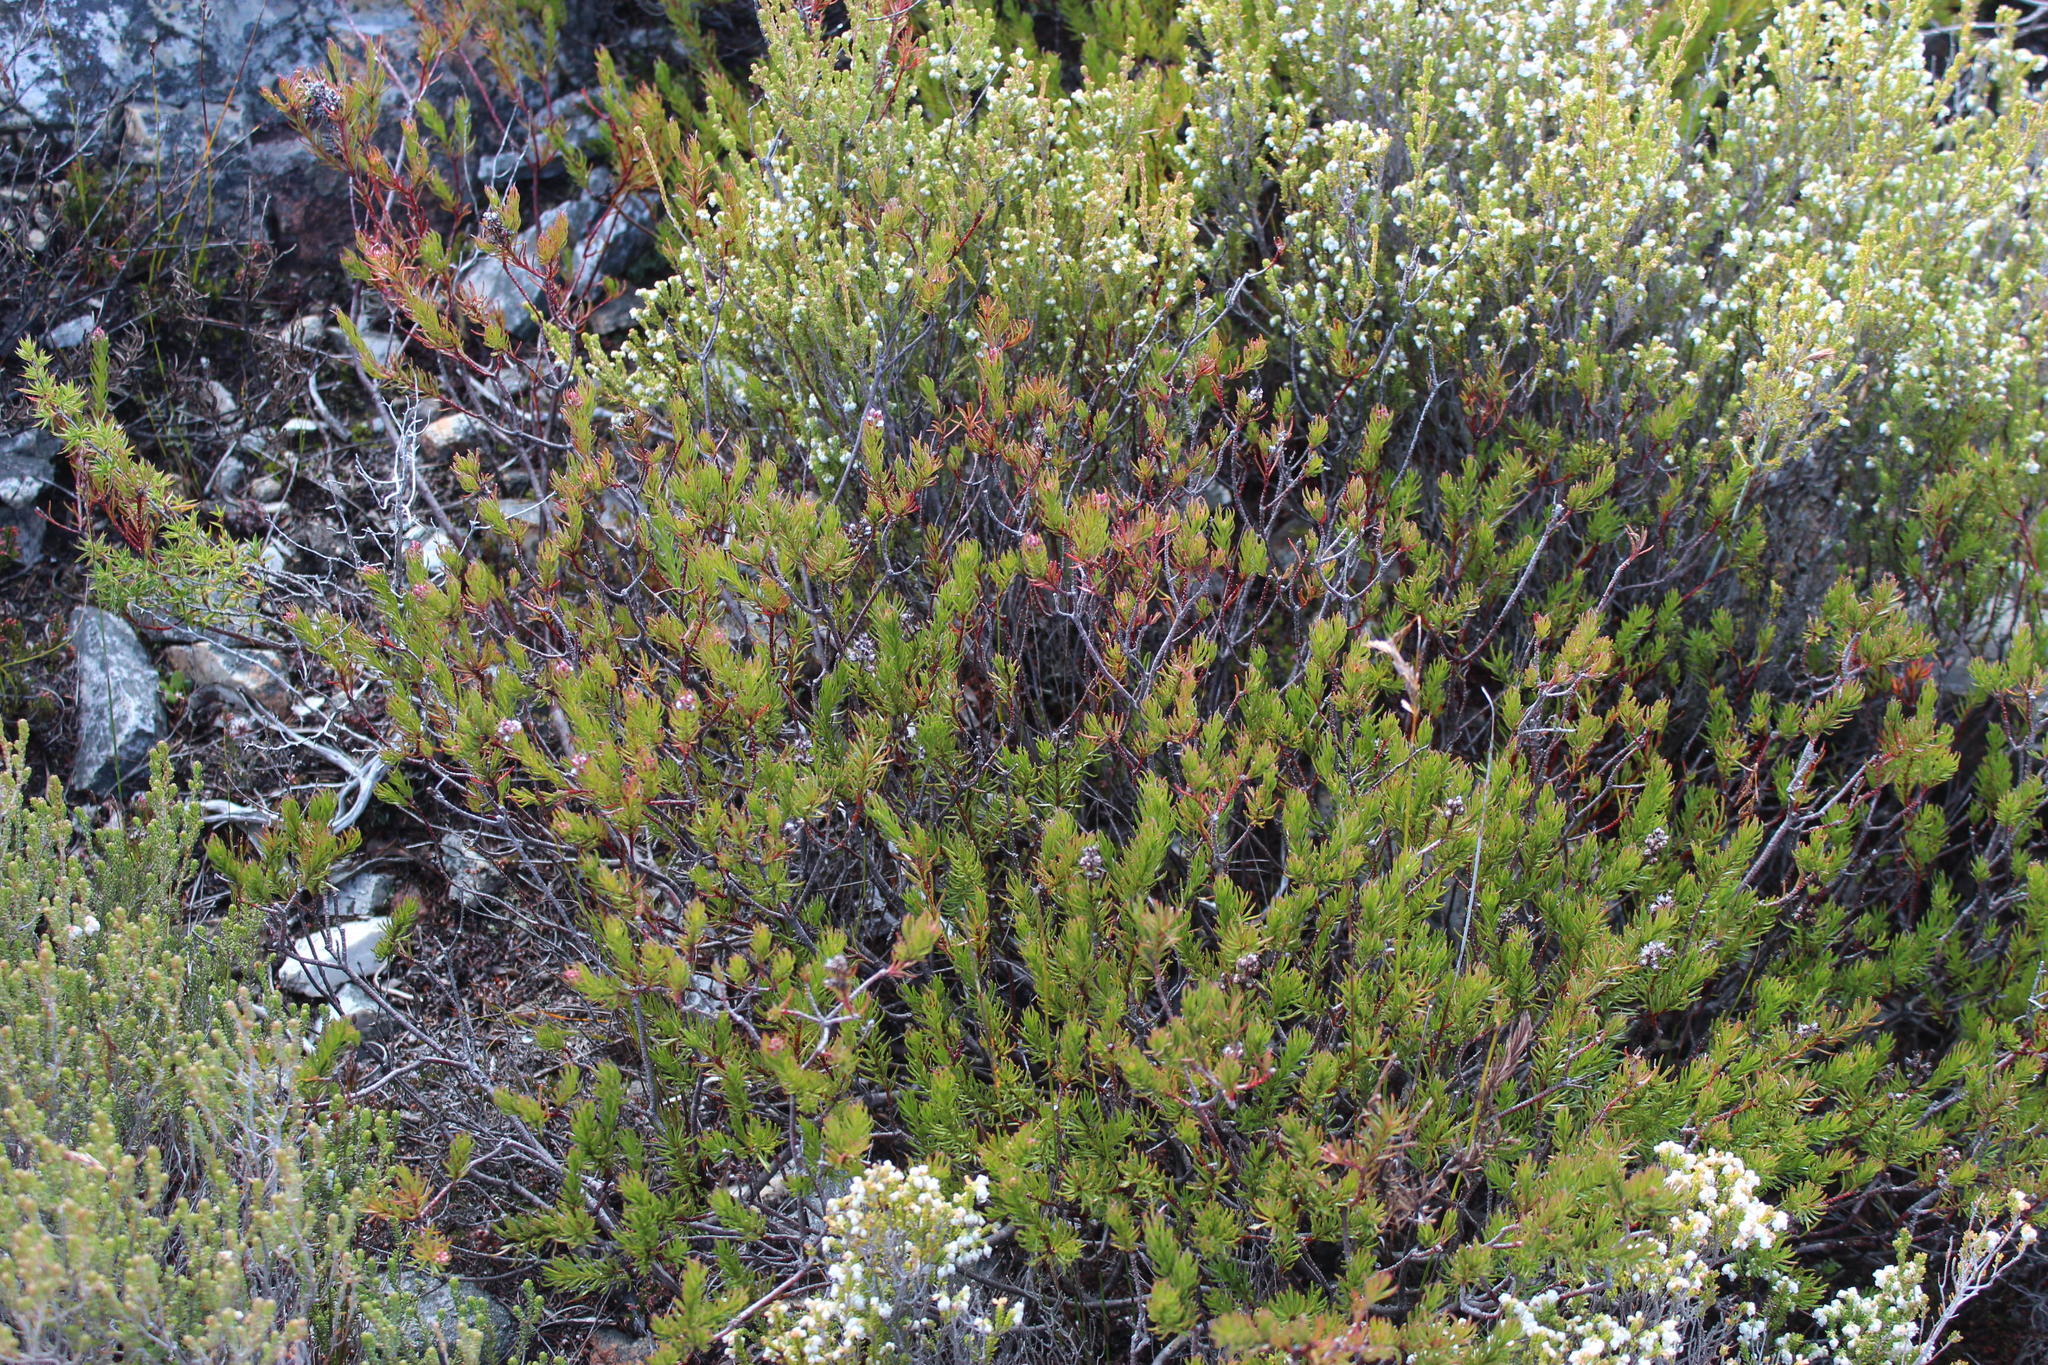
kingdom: Plantae
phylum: Tracheophyta
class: Magnoliopsida
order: Proteales
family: Proteaceae
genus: Spatalla
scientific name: Spatalla confusa
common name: Long-tube spoon
